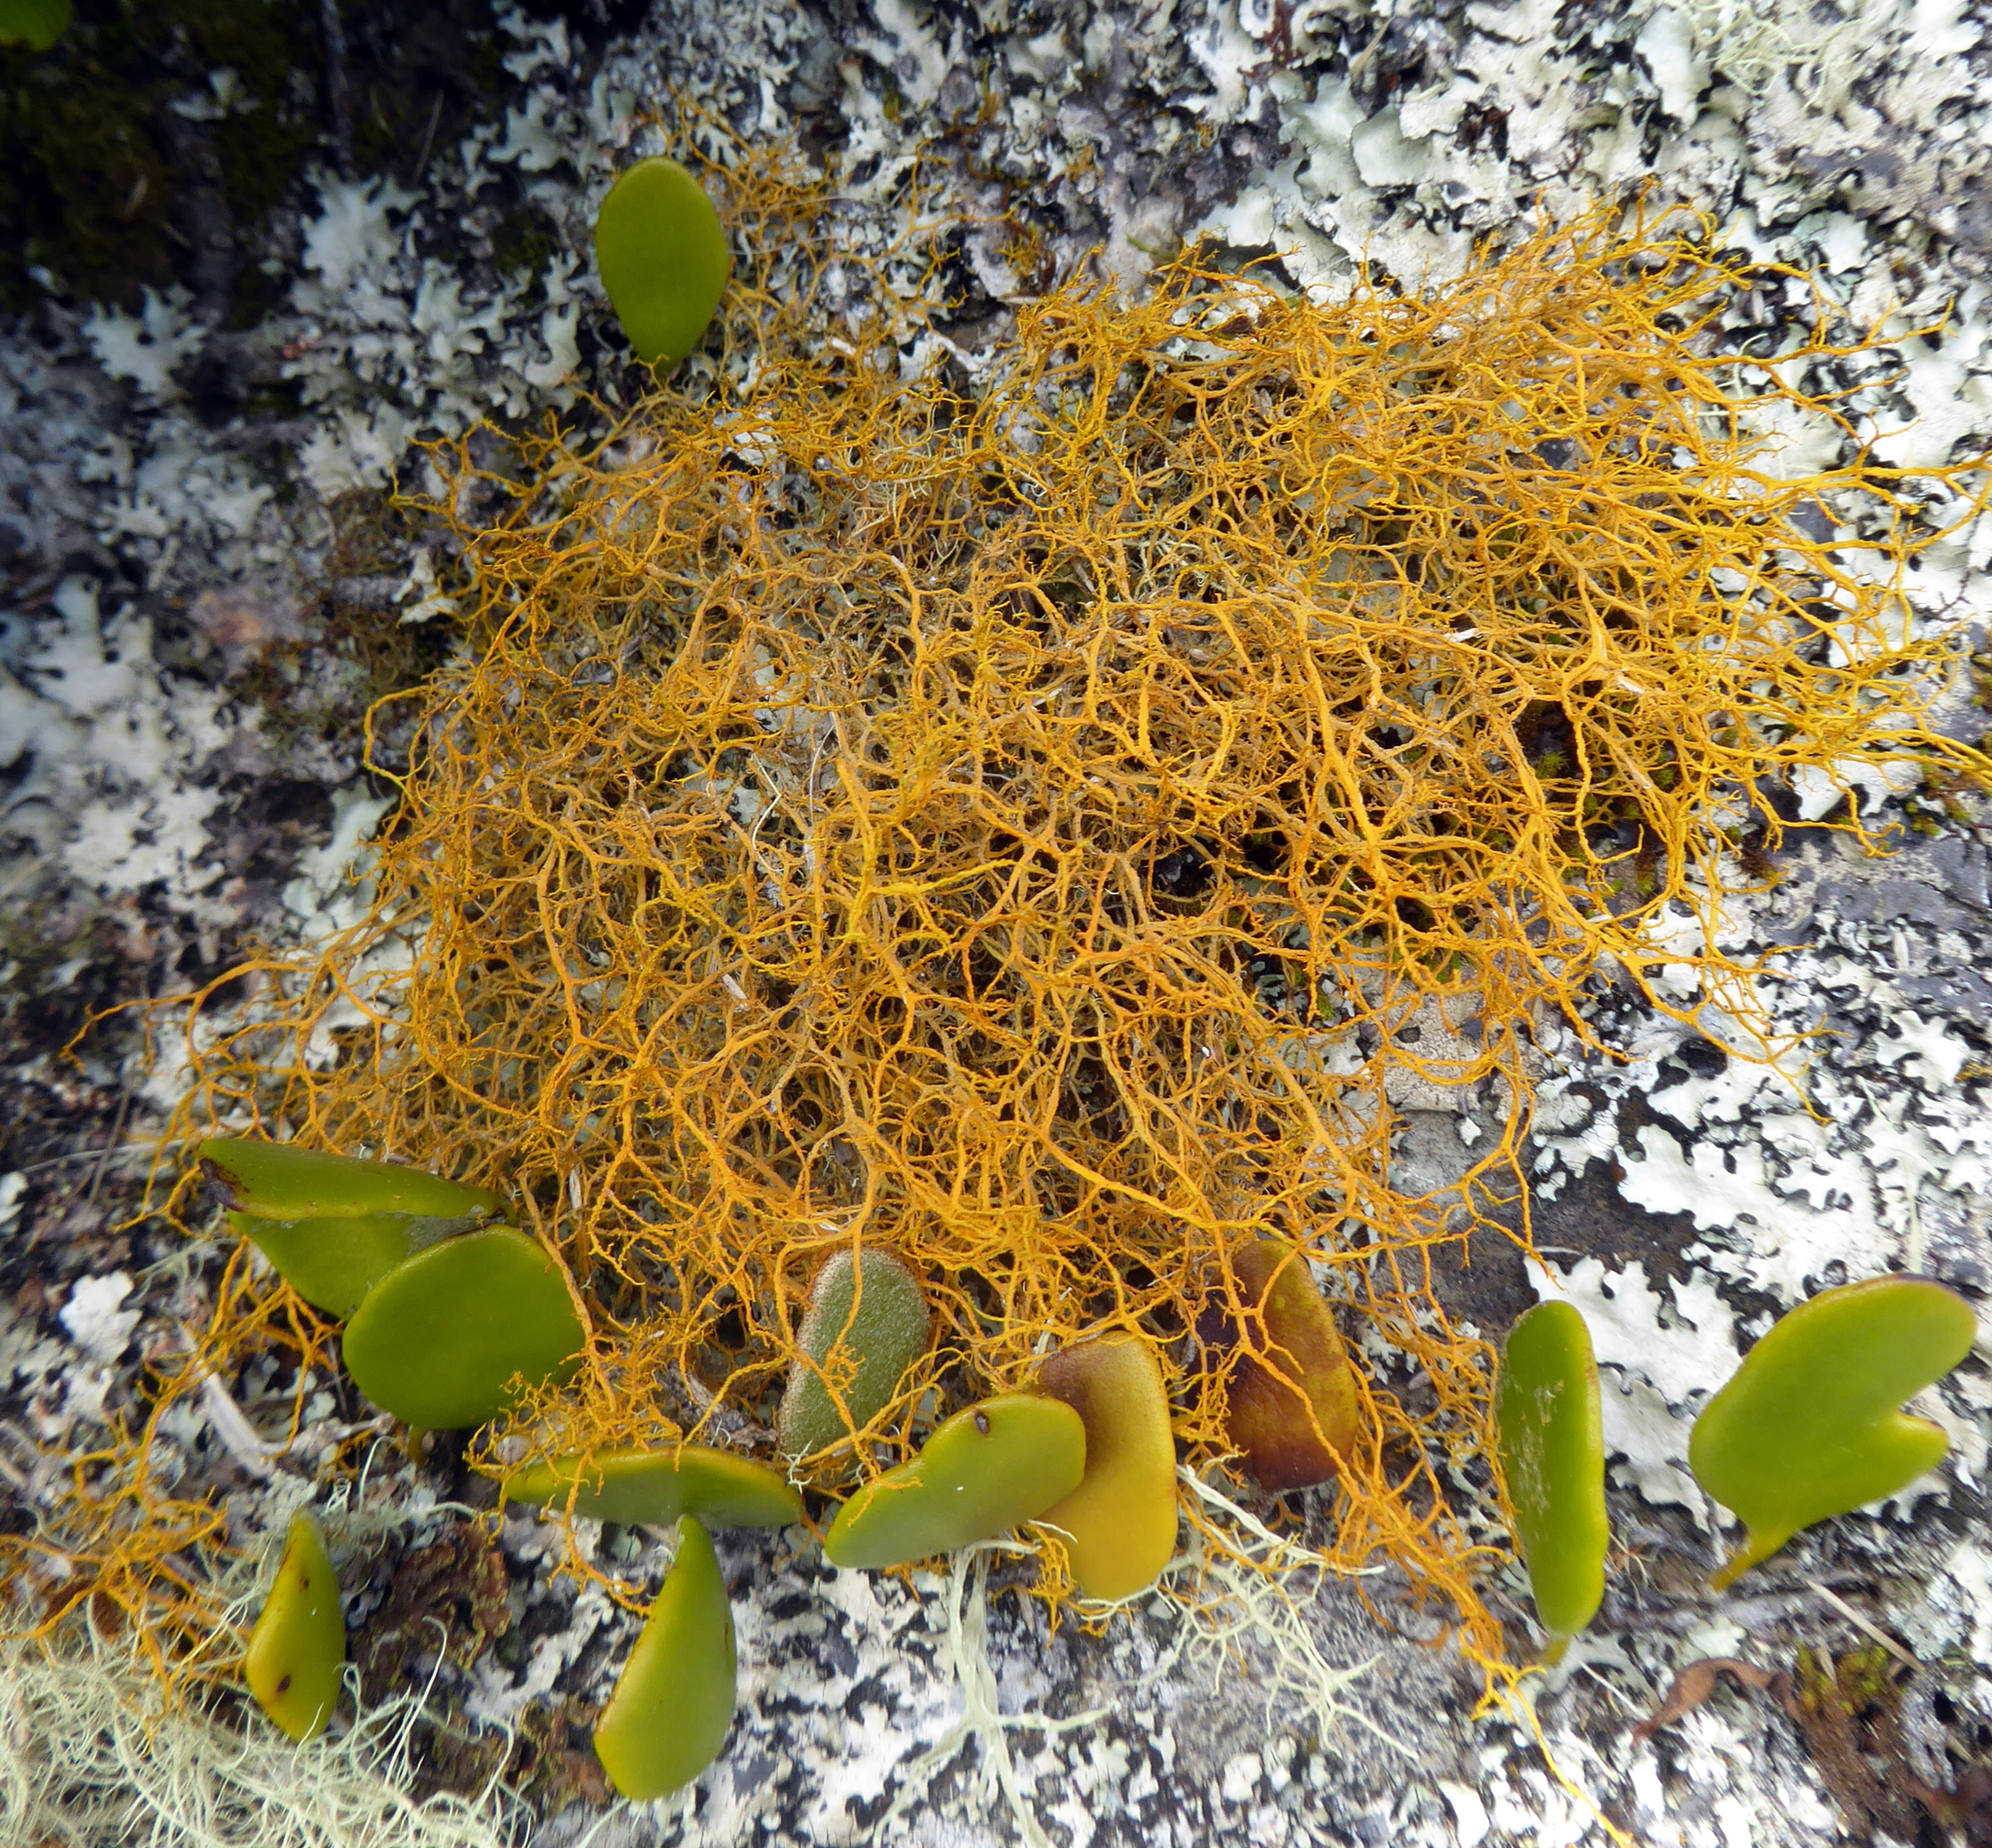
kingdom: Fungi
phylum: Ascomycota
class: Lecanoromycetes
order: Teloschistales
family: Teloschistaceae
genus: Teloschistes
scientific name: Teloschistes flavicans
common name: Golden hair-lichen
